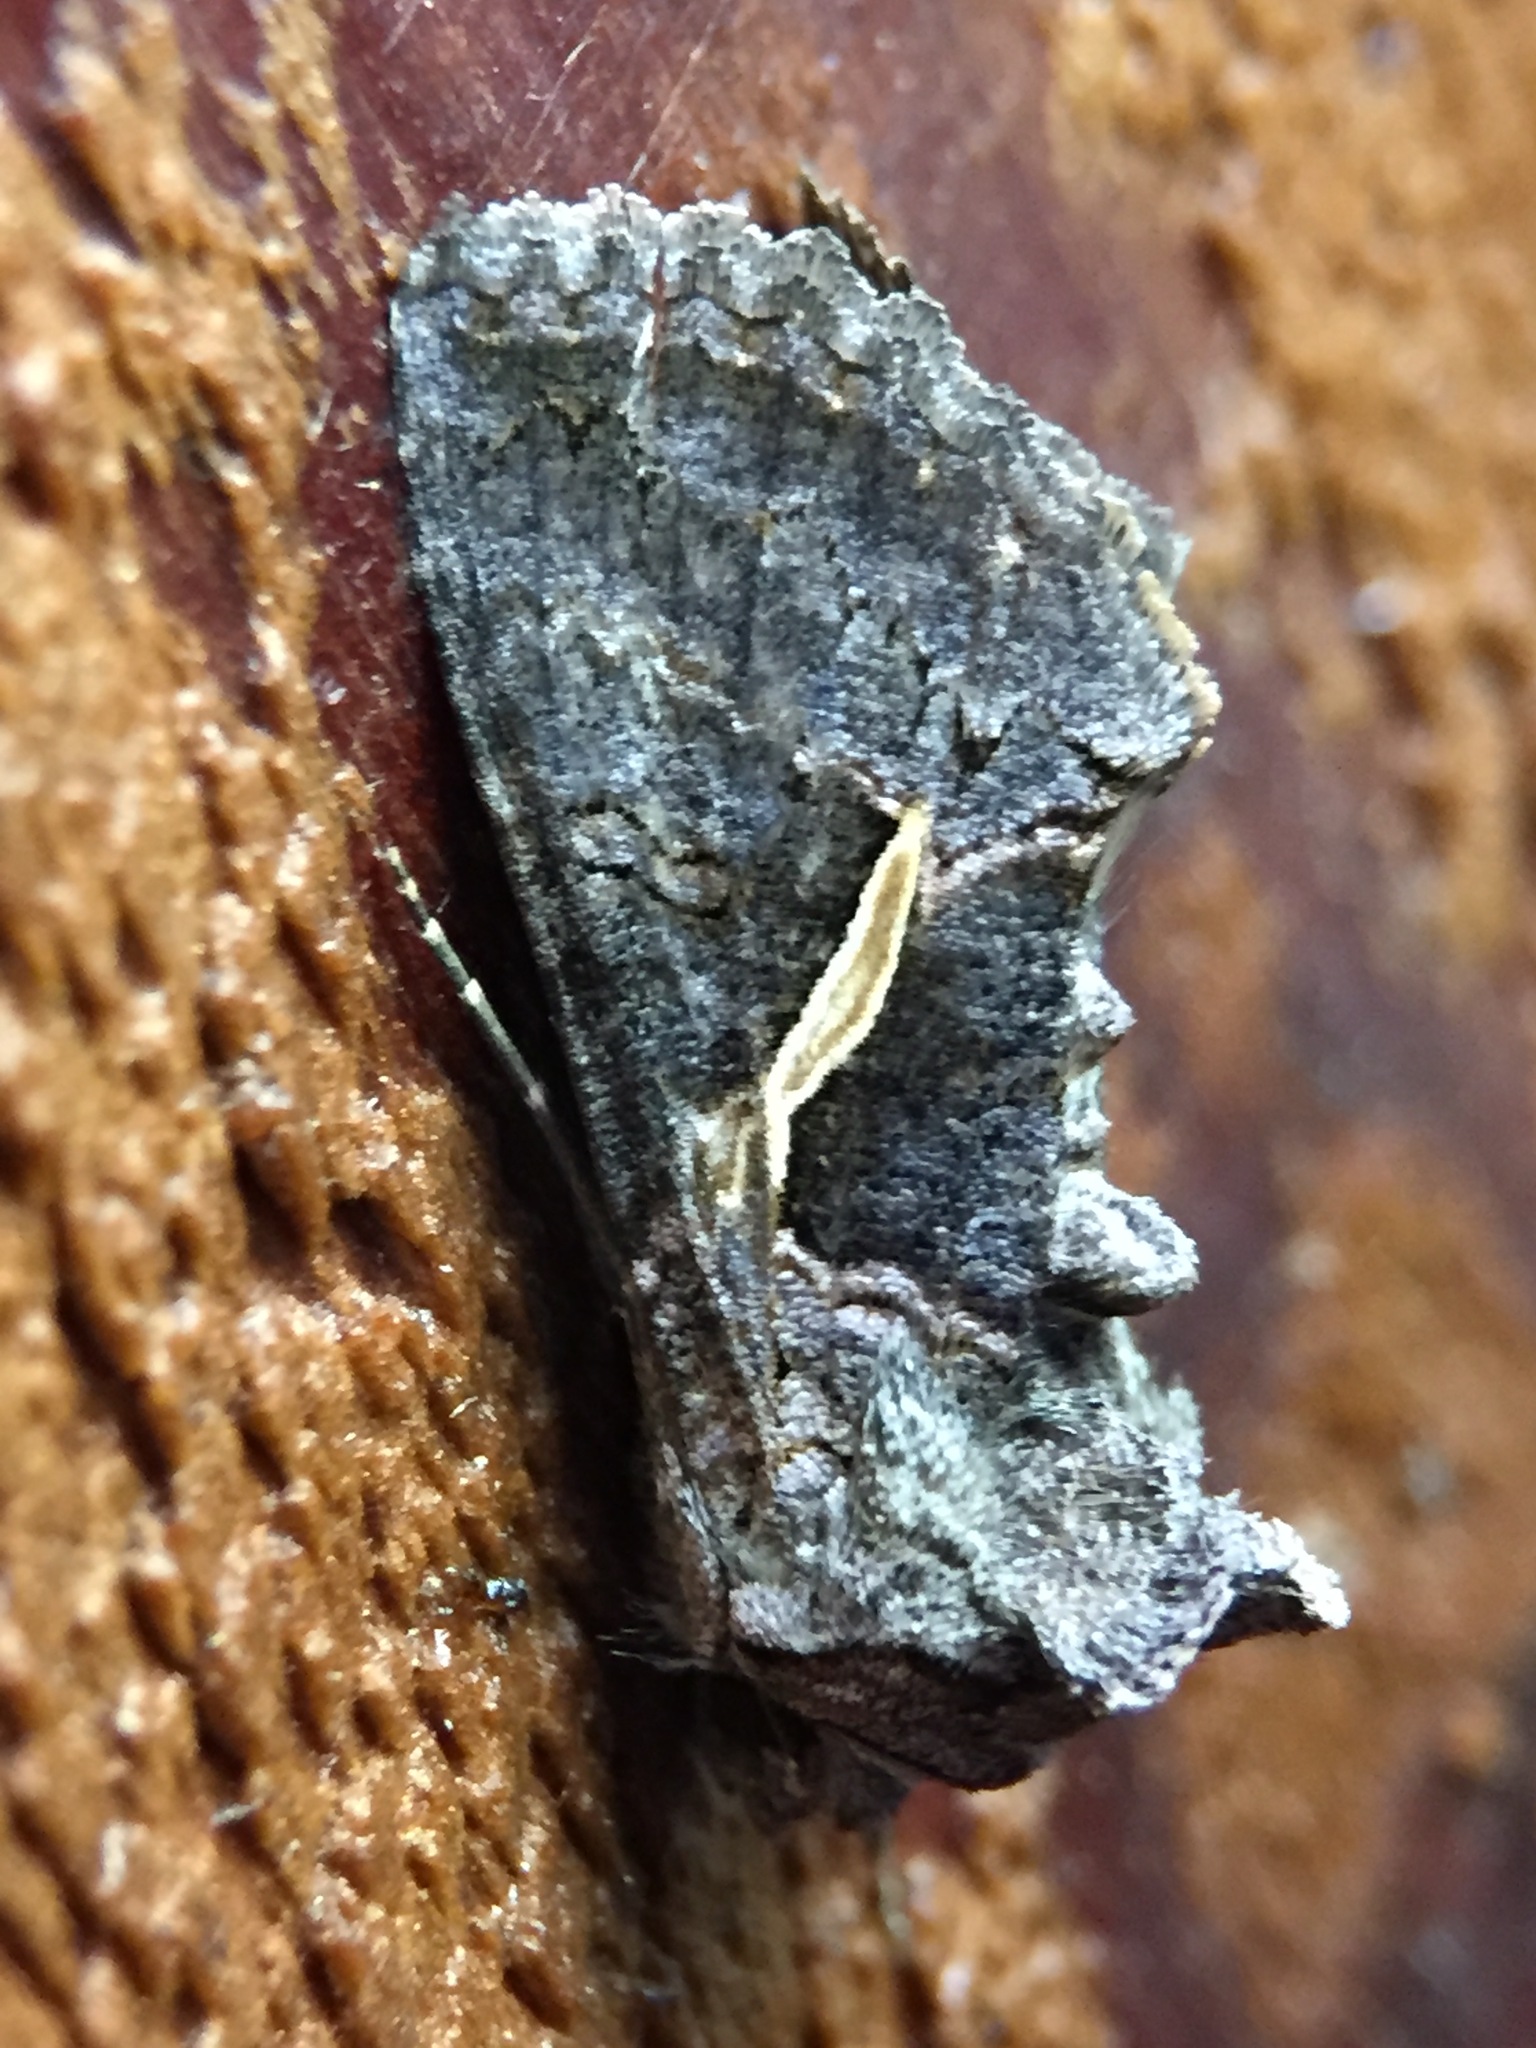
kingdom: Animalia
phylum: Arthropoda
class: Insecta
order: Lepidoptera
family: Noctuidae
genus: Ctenoplusia
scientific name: Ctenoplusia albostriata
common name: Moth
